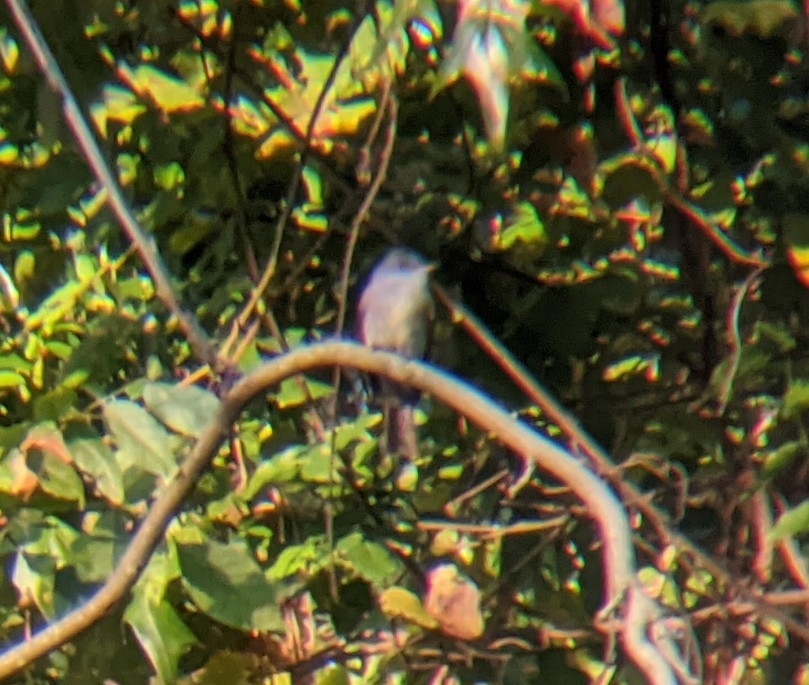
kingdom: Animalia
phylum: Chordata
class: Aves
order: Passeriformes
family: Tyrannidae
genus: Contopus
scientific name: Contopus virens
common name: Eastern wood-pewee
